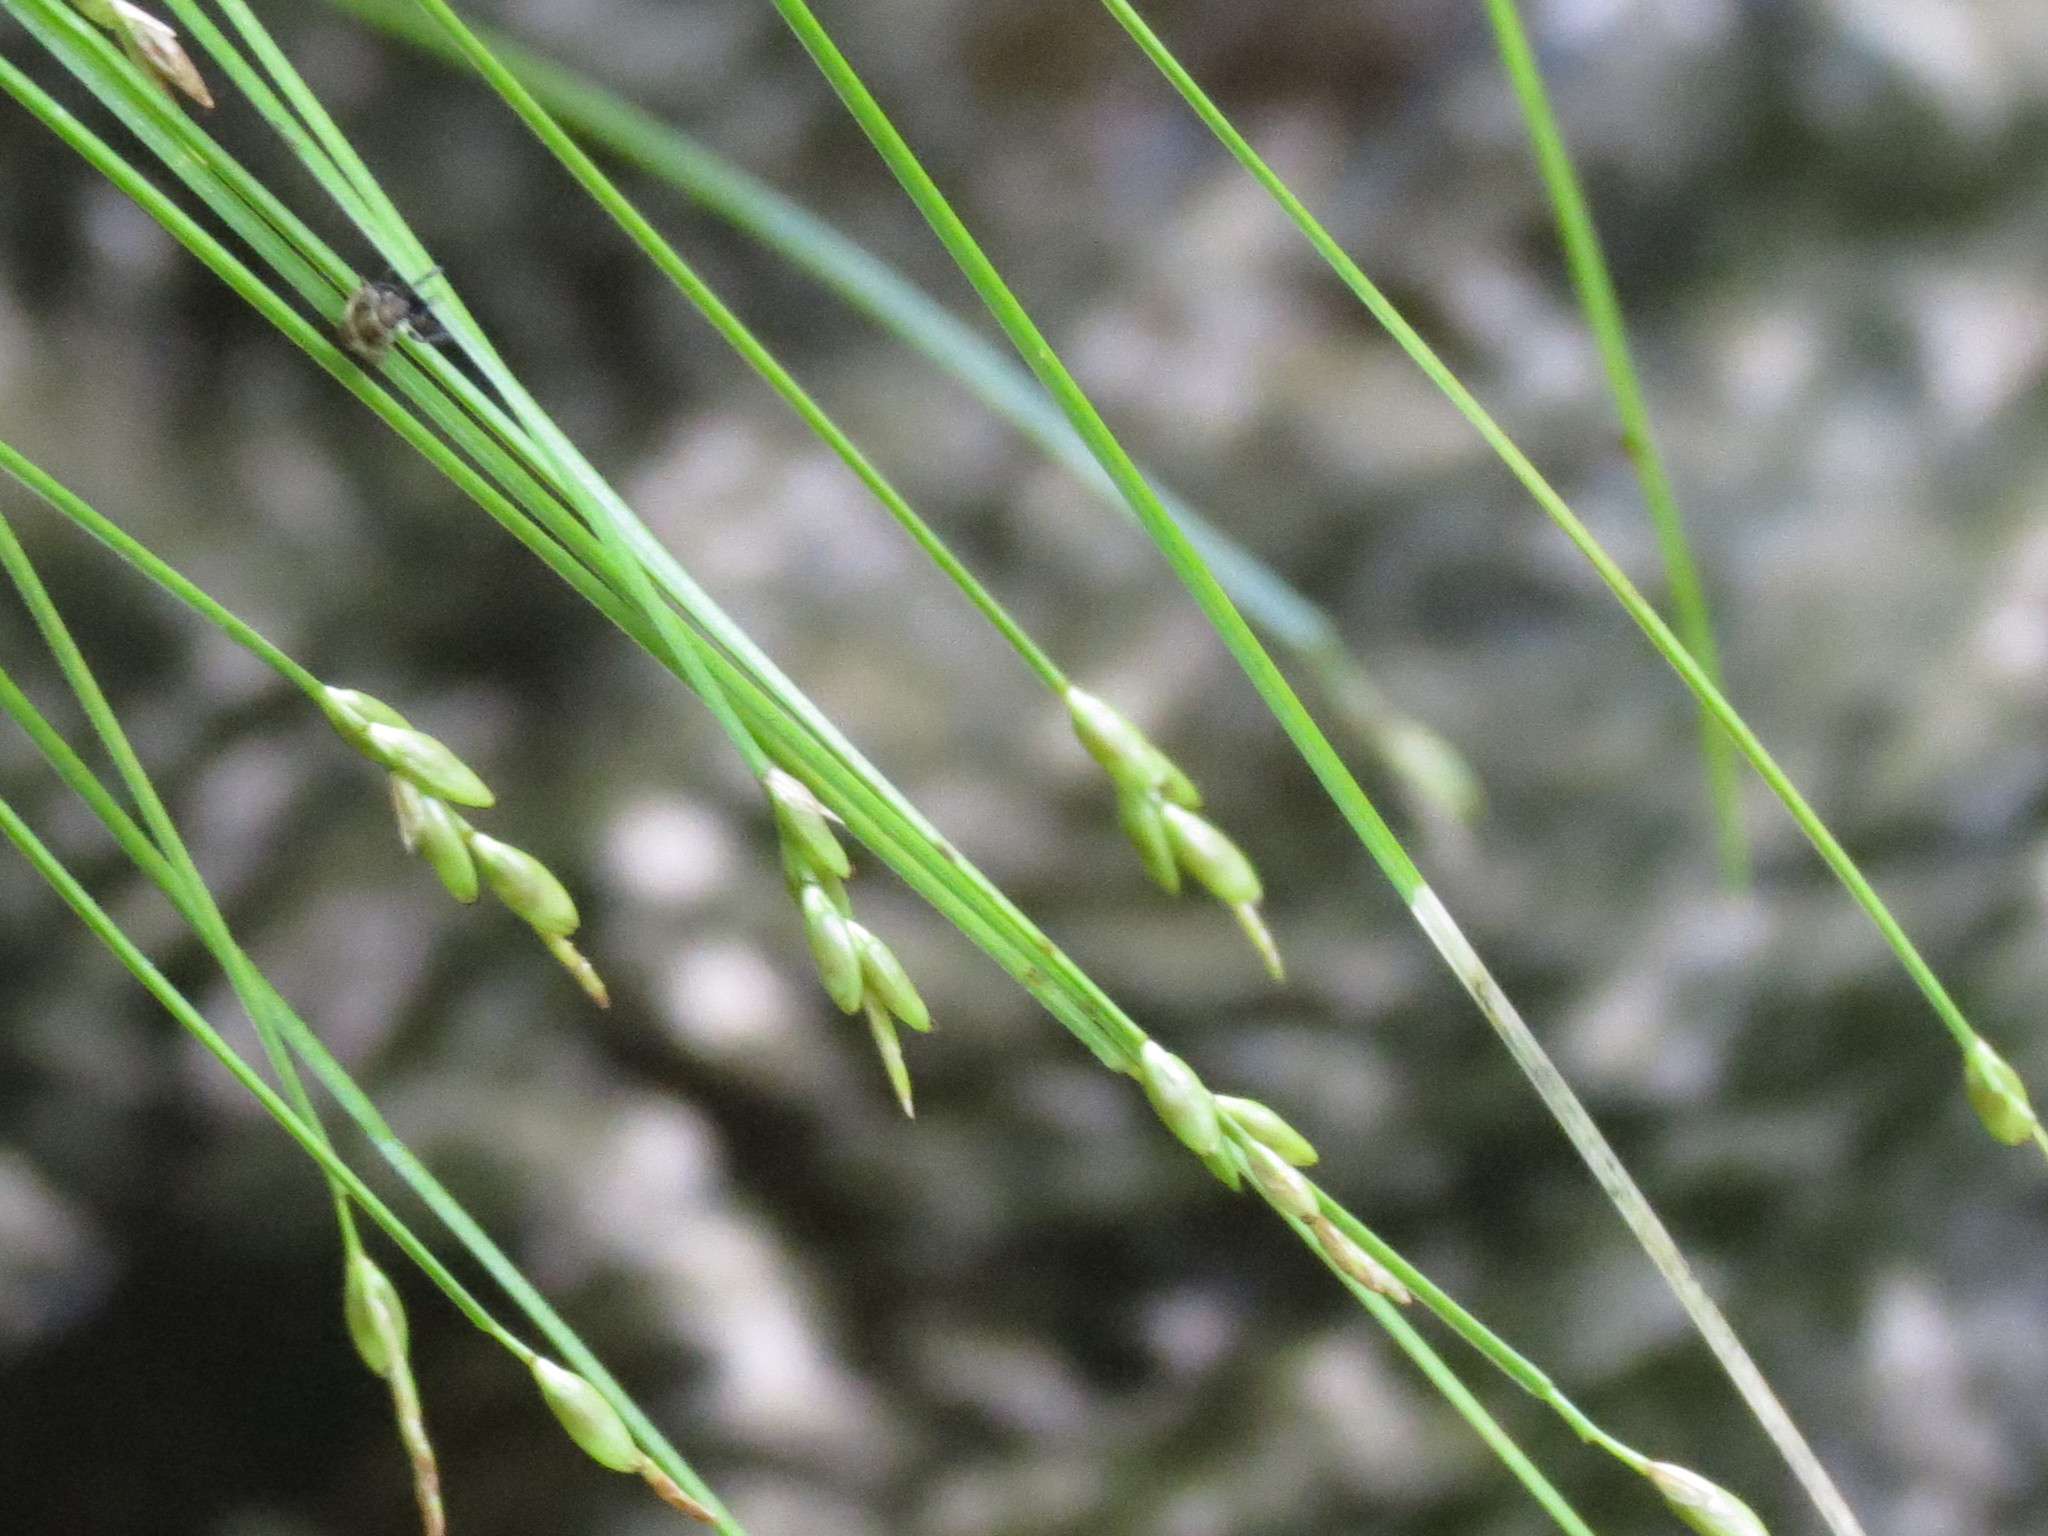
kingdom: Plantae
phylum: Tracheophyta
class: Liliopsida
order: Poales
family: Cyperaceae
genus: Carex
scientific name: Carex leptalea
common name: Bristly-stalked sedge
